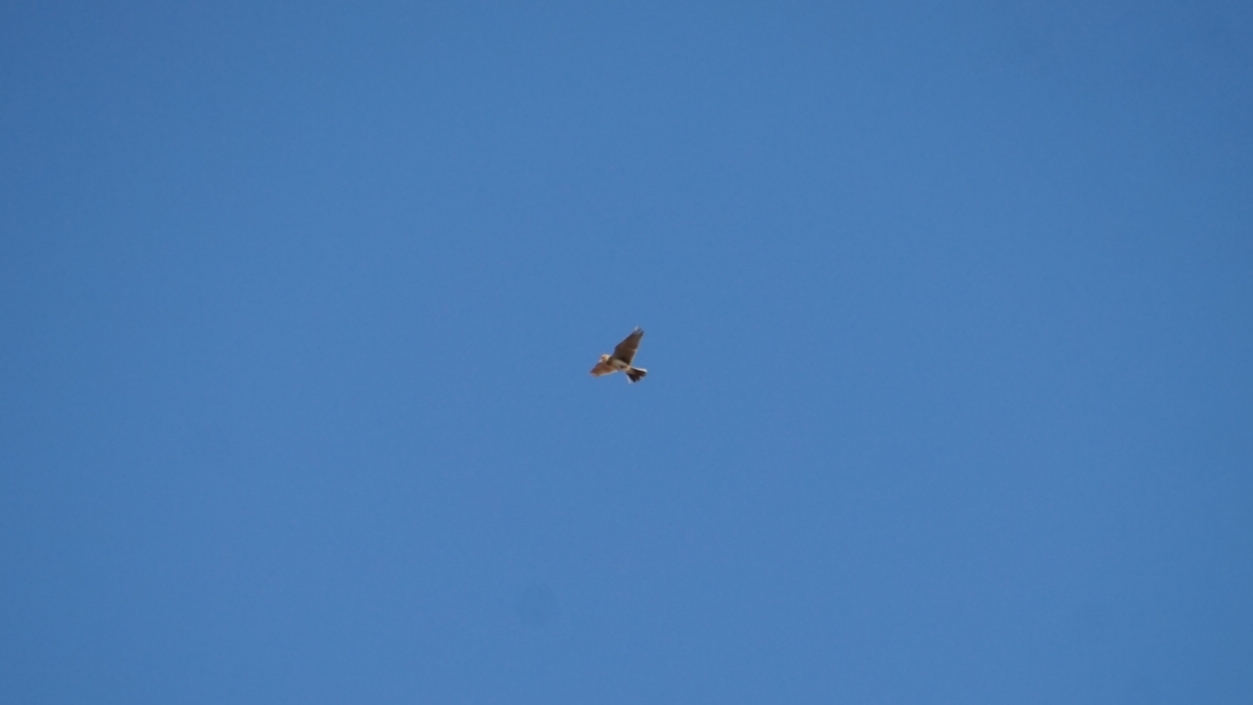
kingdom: Animalia
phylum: Chordata
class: Aves
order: Passeriformes
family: Alaudidae
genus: Alauda
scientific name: Alauda arvensis
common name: Eurasian skylark
